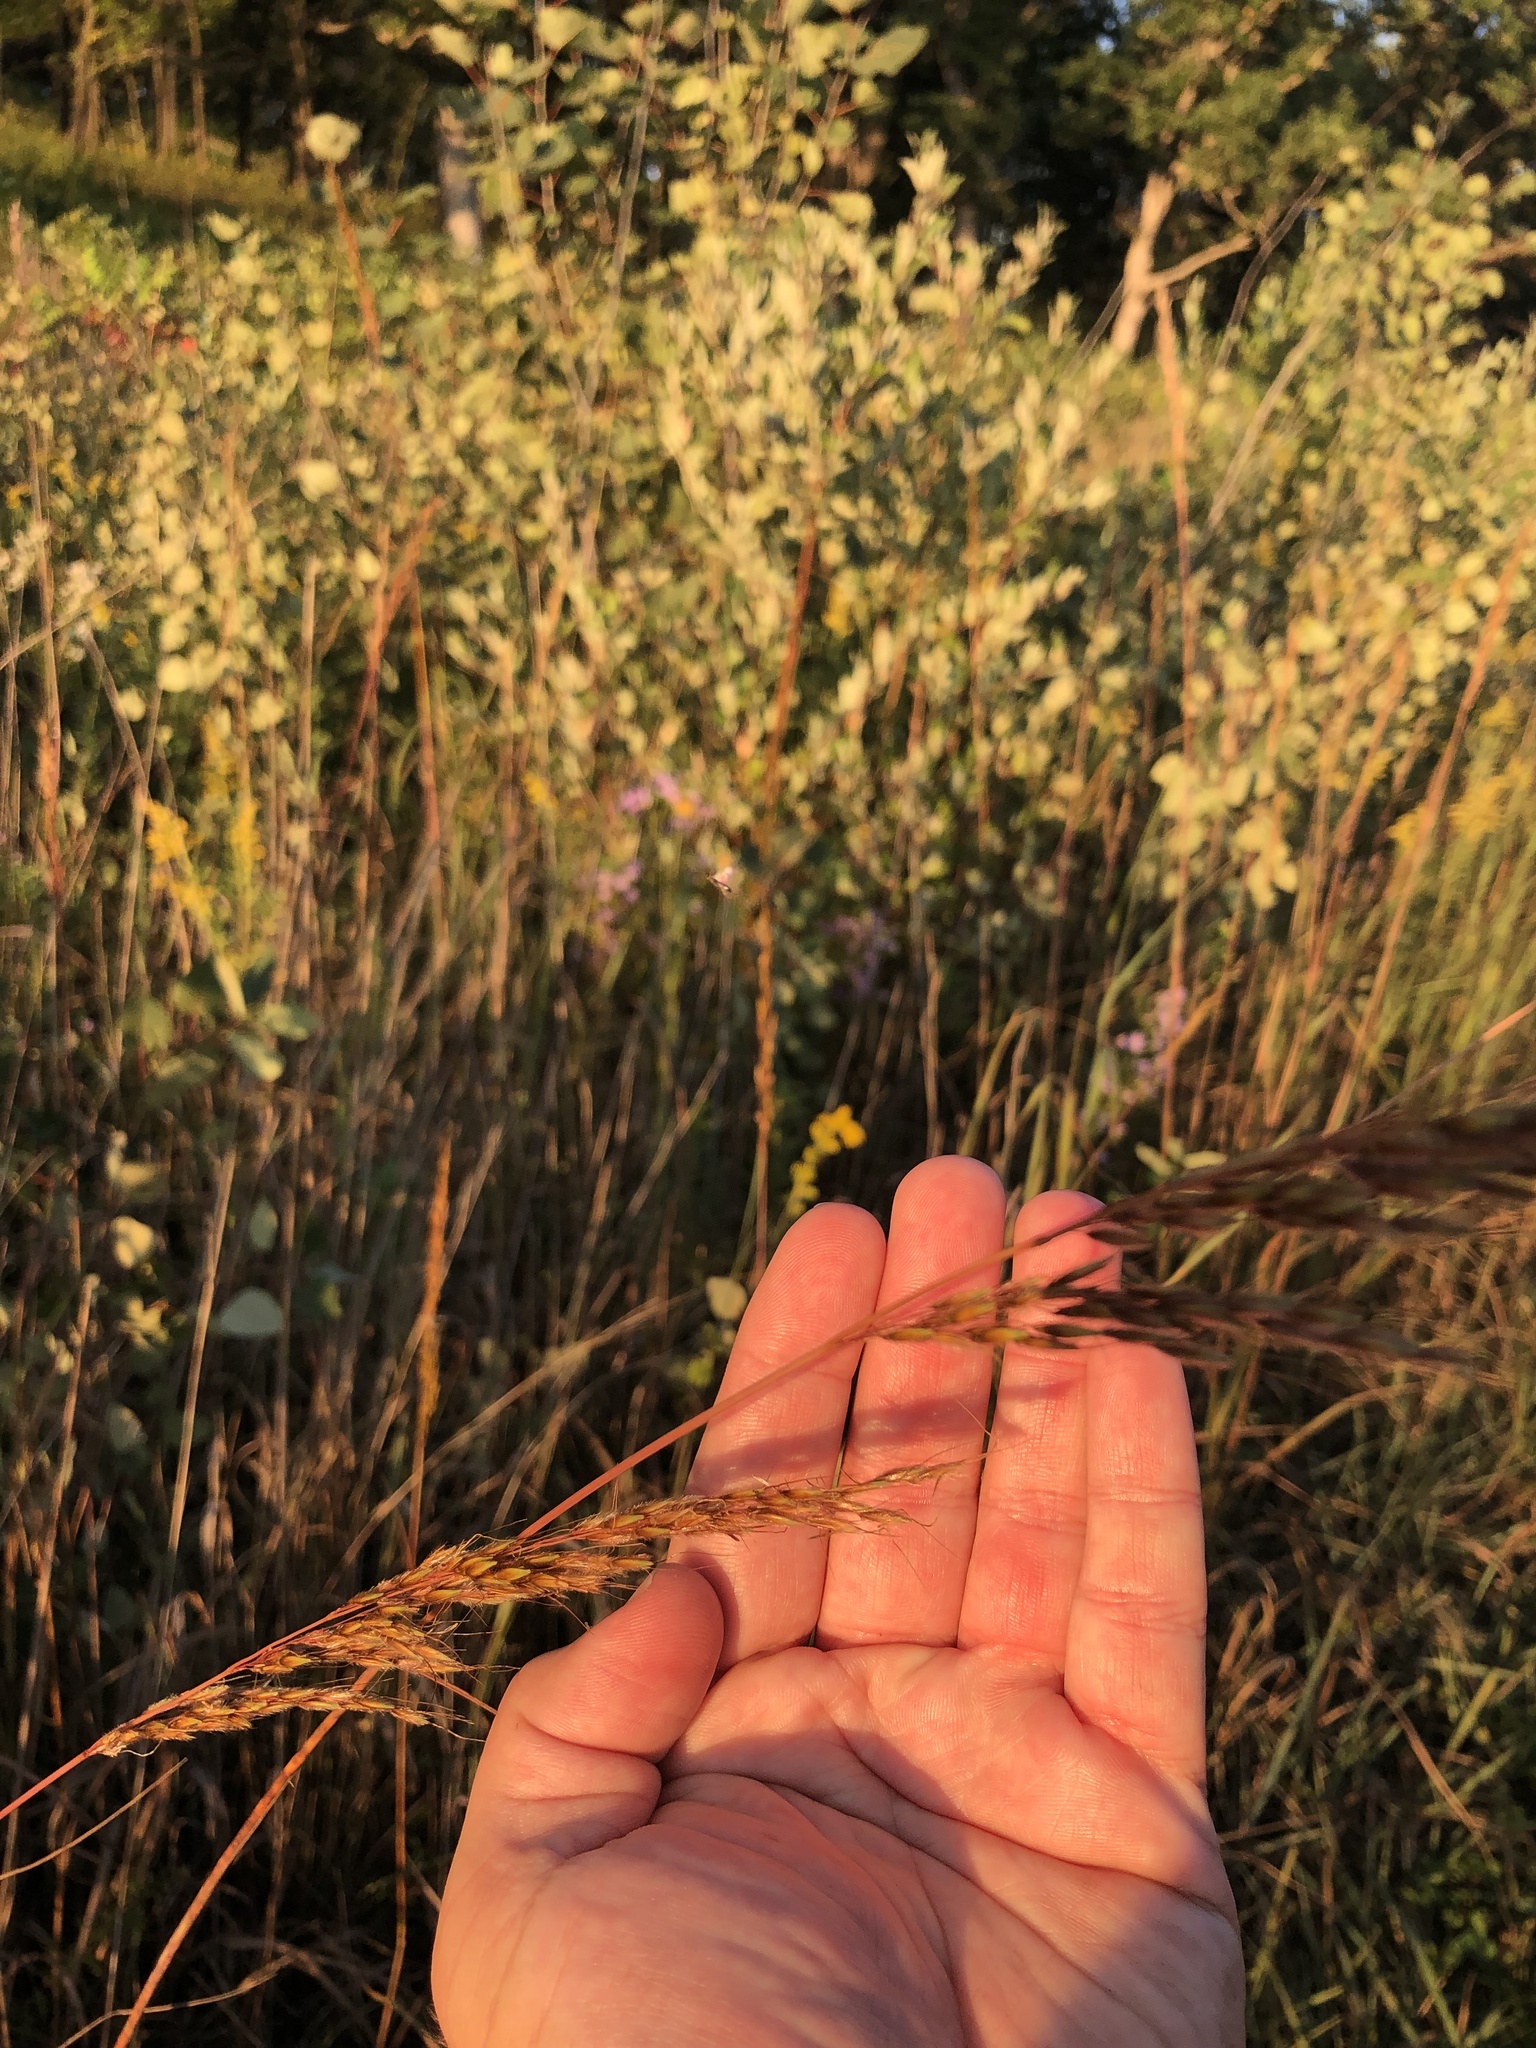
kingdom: Plantae
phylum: Tracheophyta
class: Liliopsida
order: Poales
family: Poaceae
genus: Sorghastrum
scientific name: Sorghastrum nutans
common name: Indian grass
